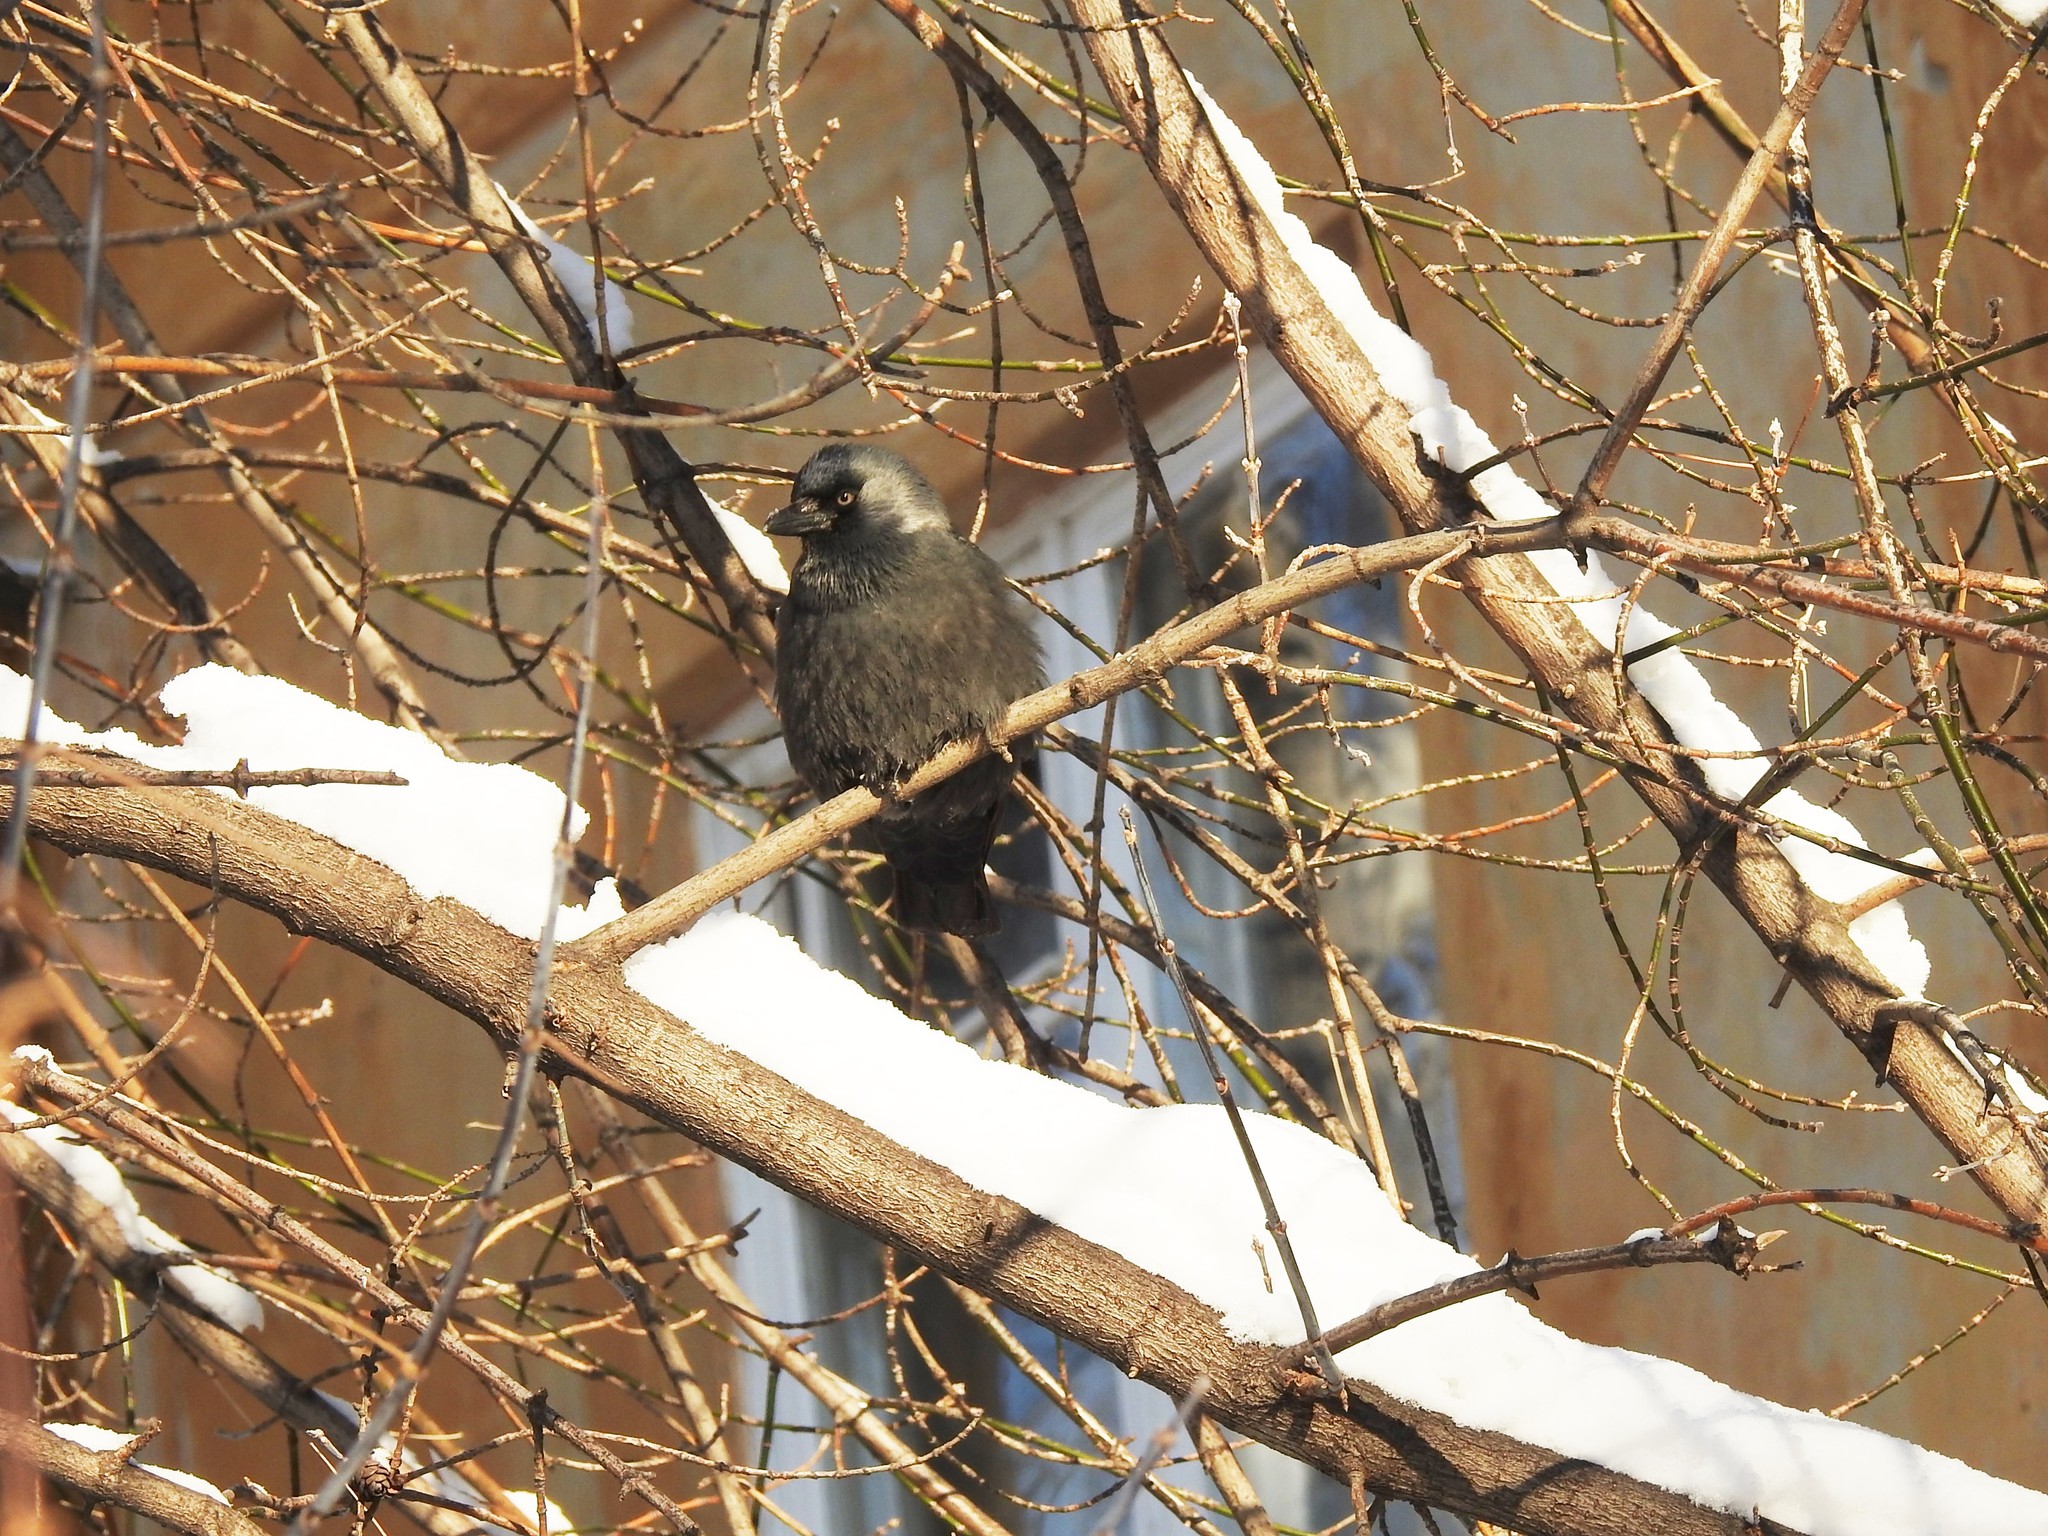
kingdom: Animalia
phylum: Chordata
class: Aves
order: Passeriformes
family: Corvidae
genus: Coloeus
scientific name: Coloeus monedula
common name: Western jackdaw
